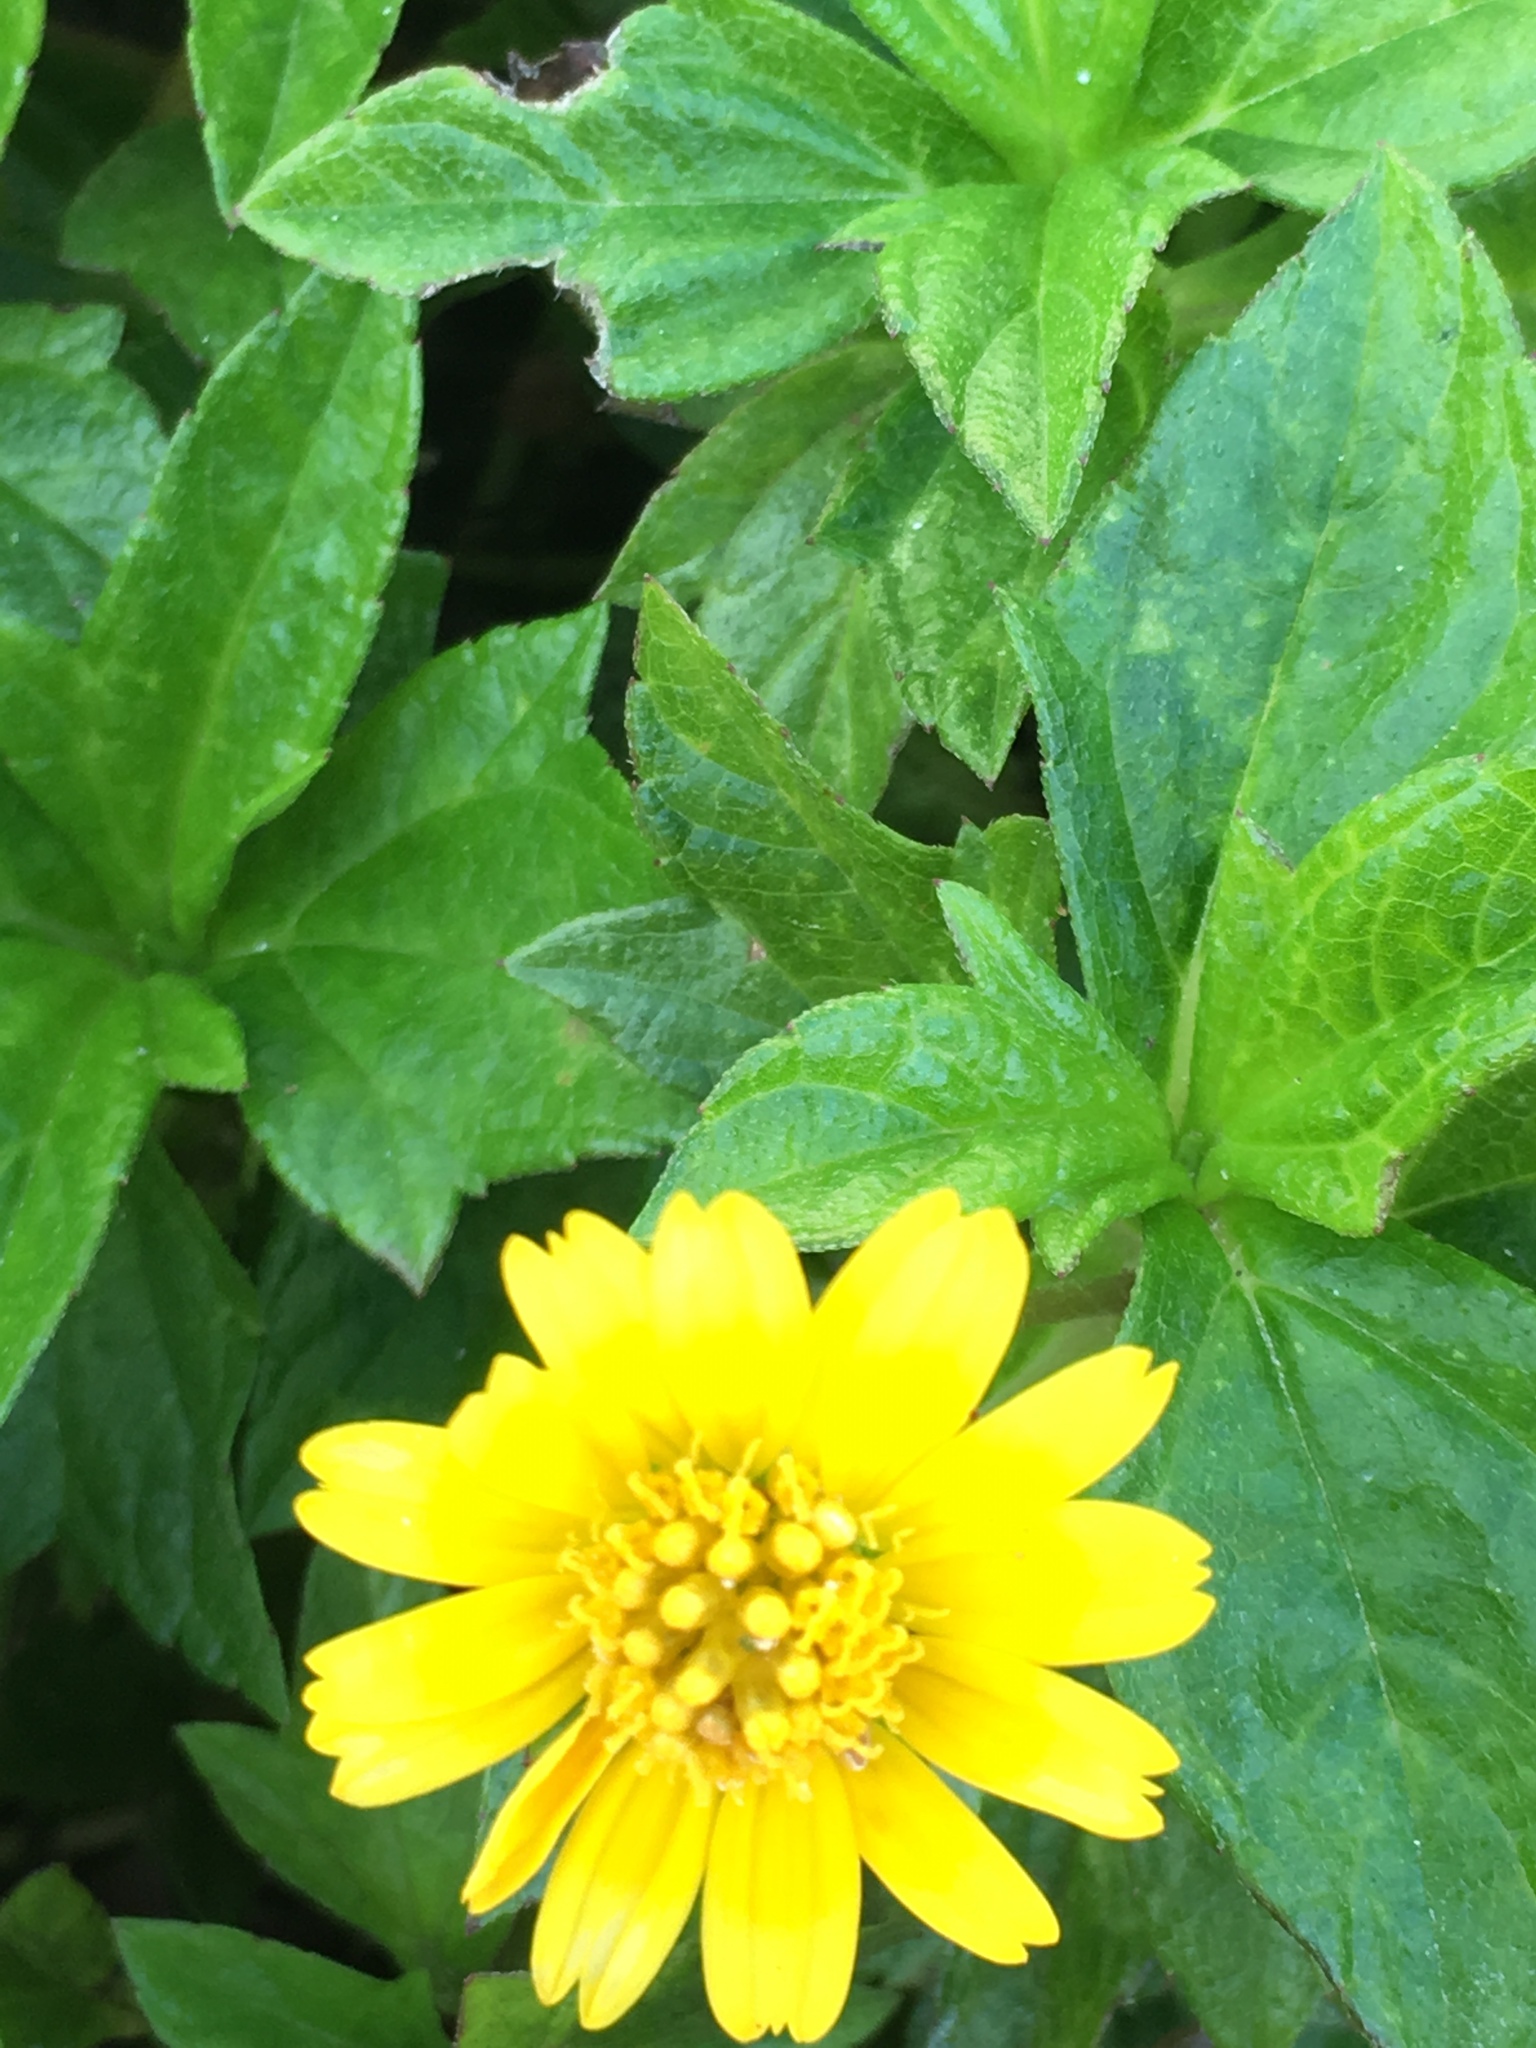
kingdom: Plantae
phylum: Tracheophyta
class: Magnoliopsida
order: Asterales
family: Asteraceae
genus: Sphagneticola
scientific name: Sphagneticola trilobata
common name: Bay biscayne creeping-oxeye
